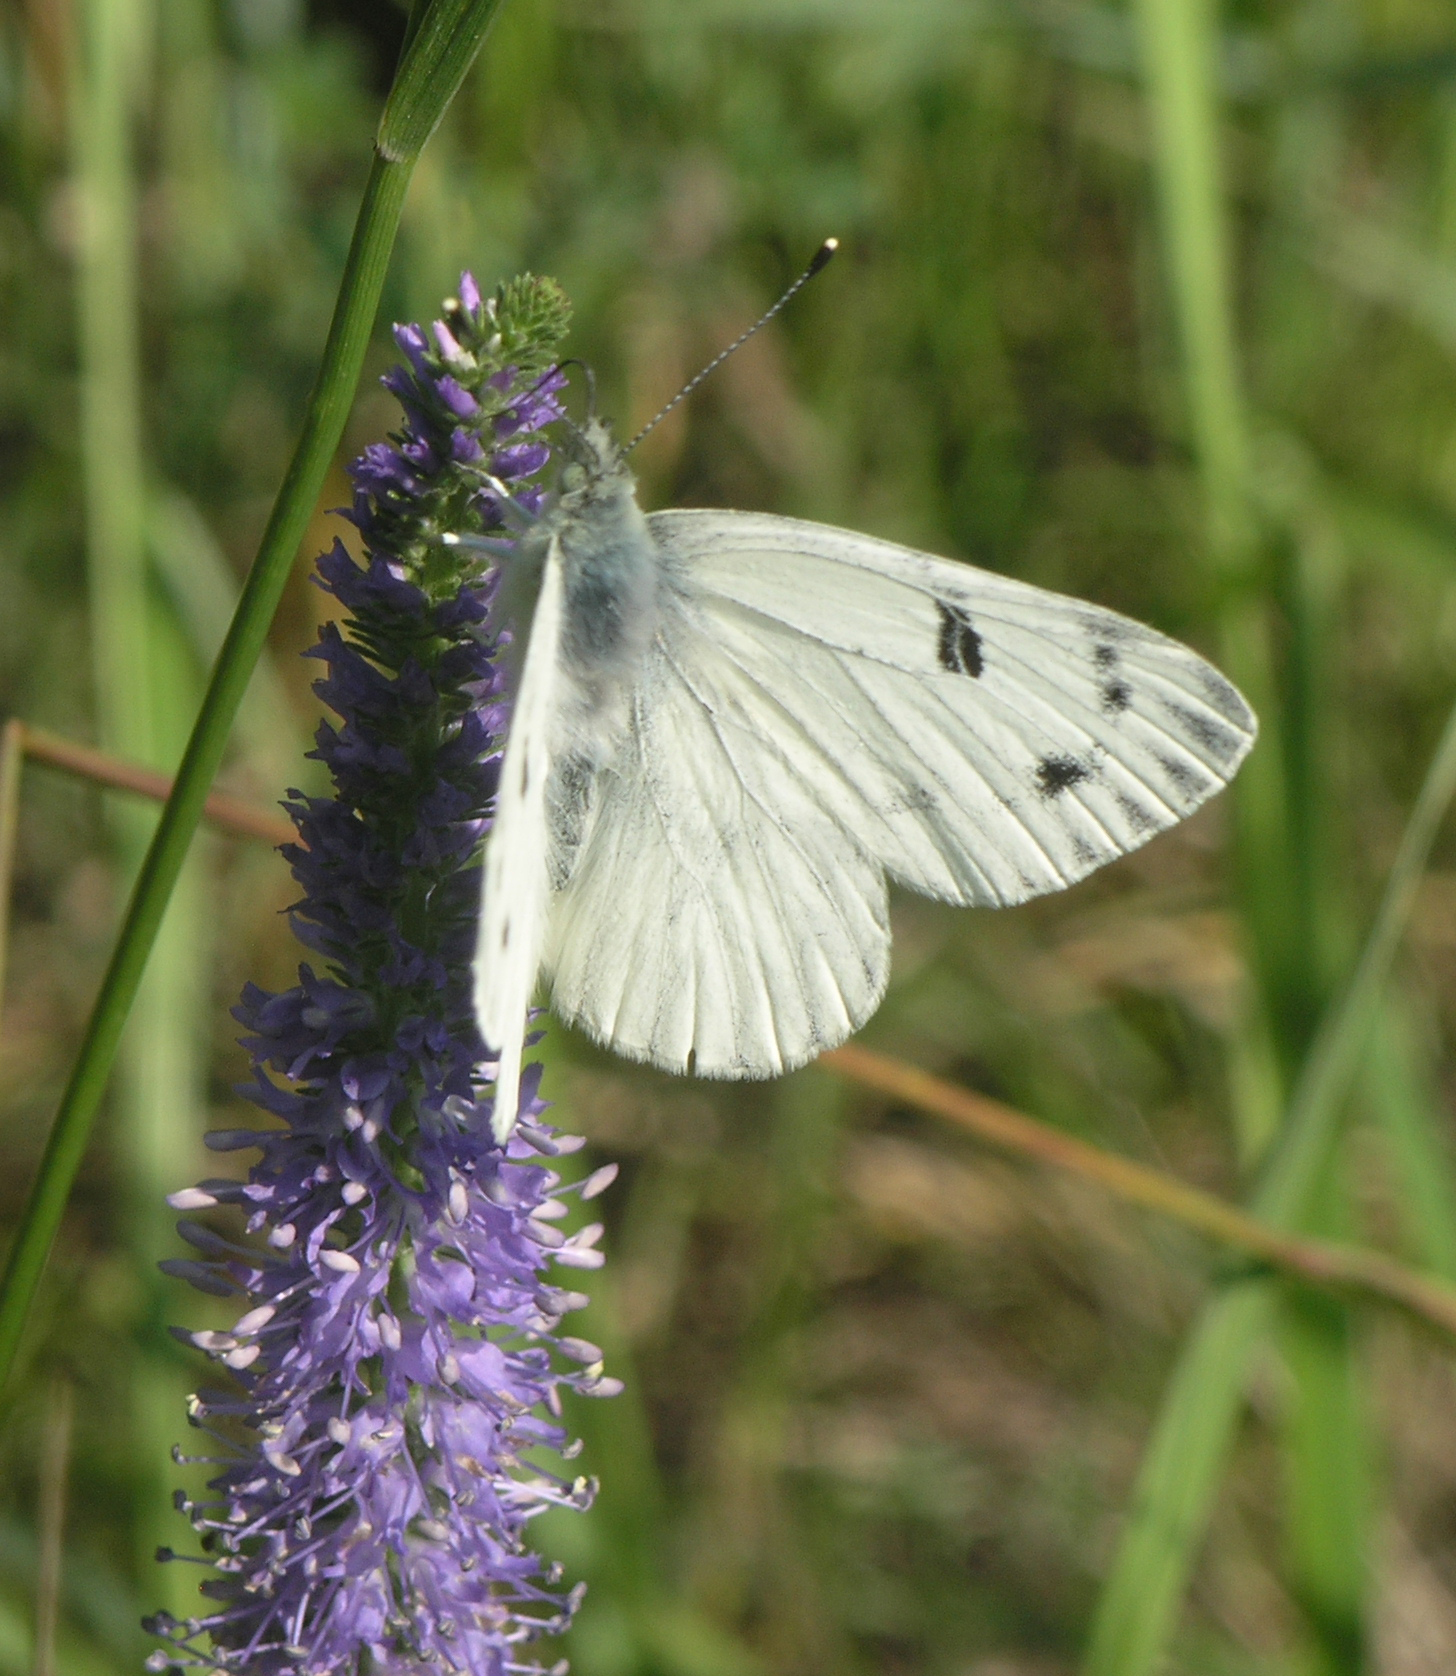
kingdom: Animalia
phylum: Arthropoda
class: Insecta
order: Lepidoptera
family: Pieridae
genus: Pontia
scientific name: Pontia callidice
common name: Peak white
